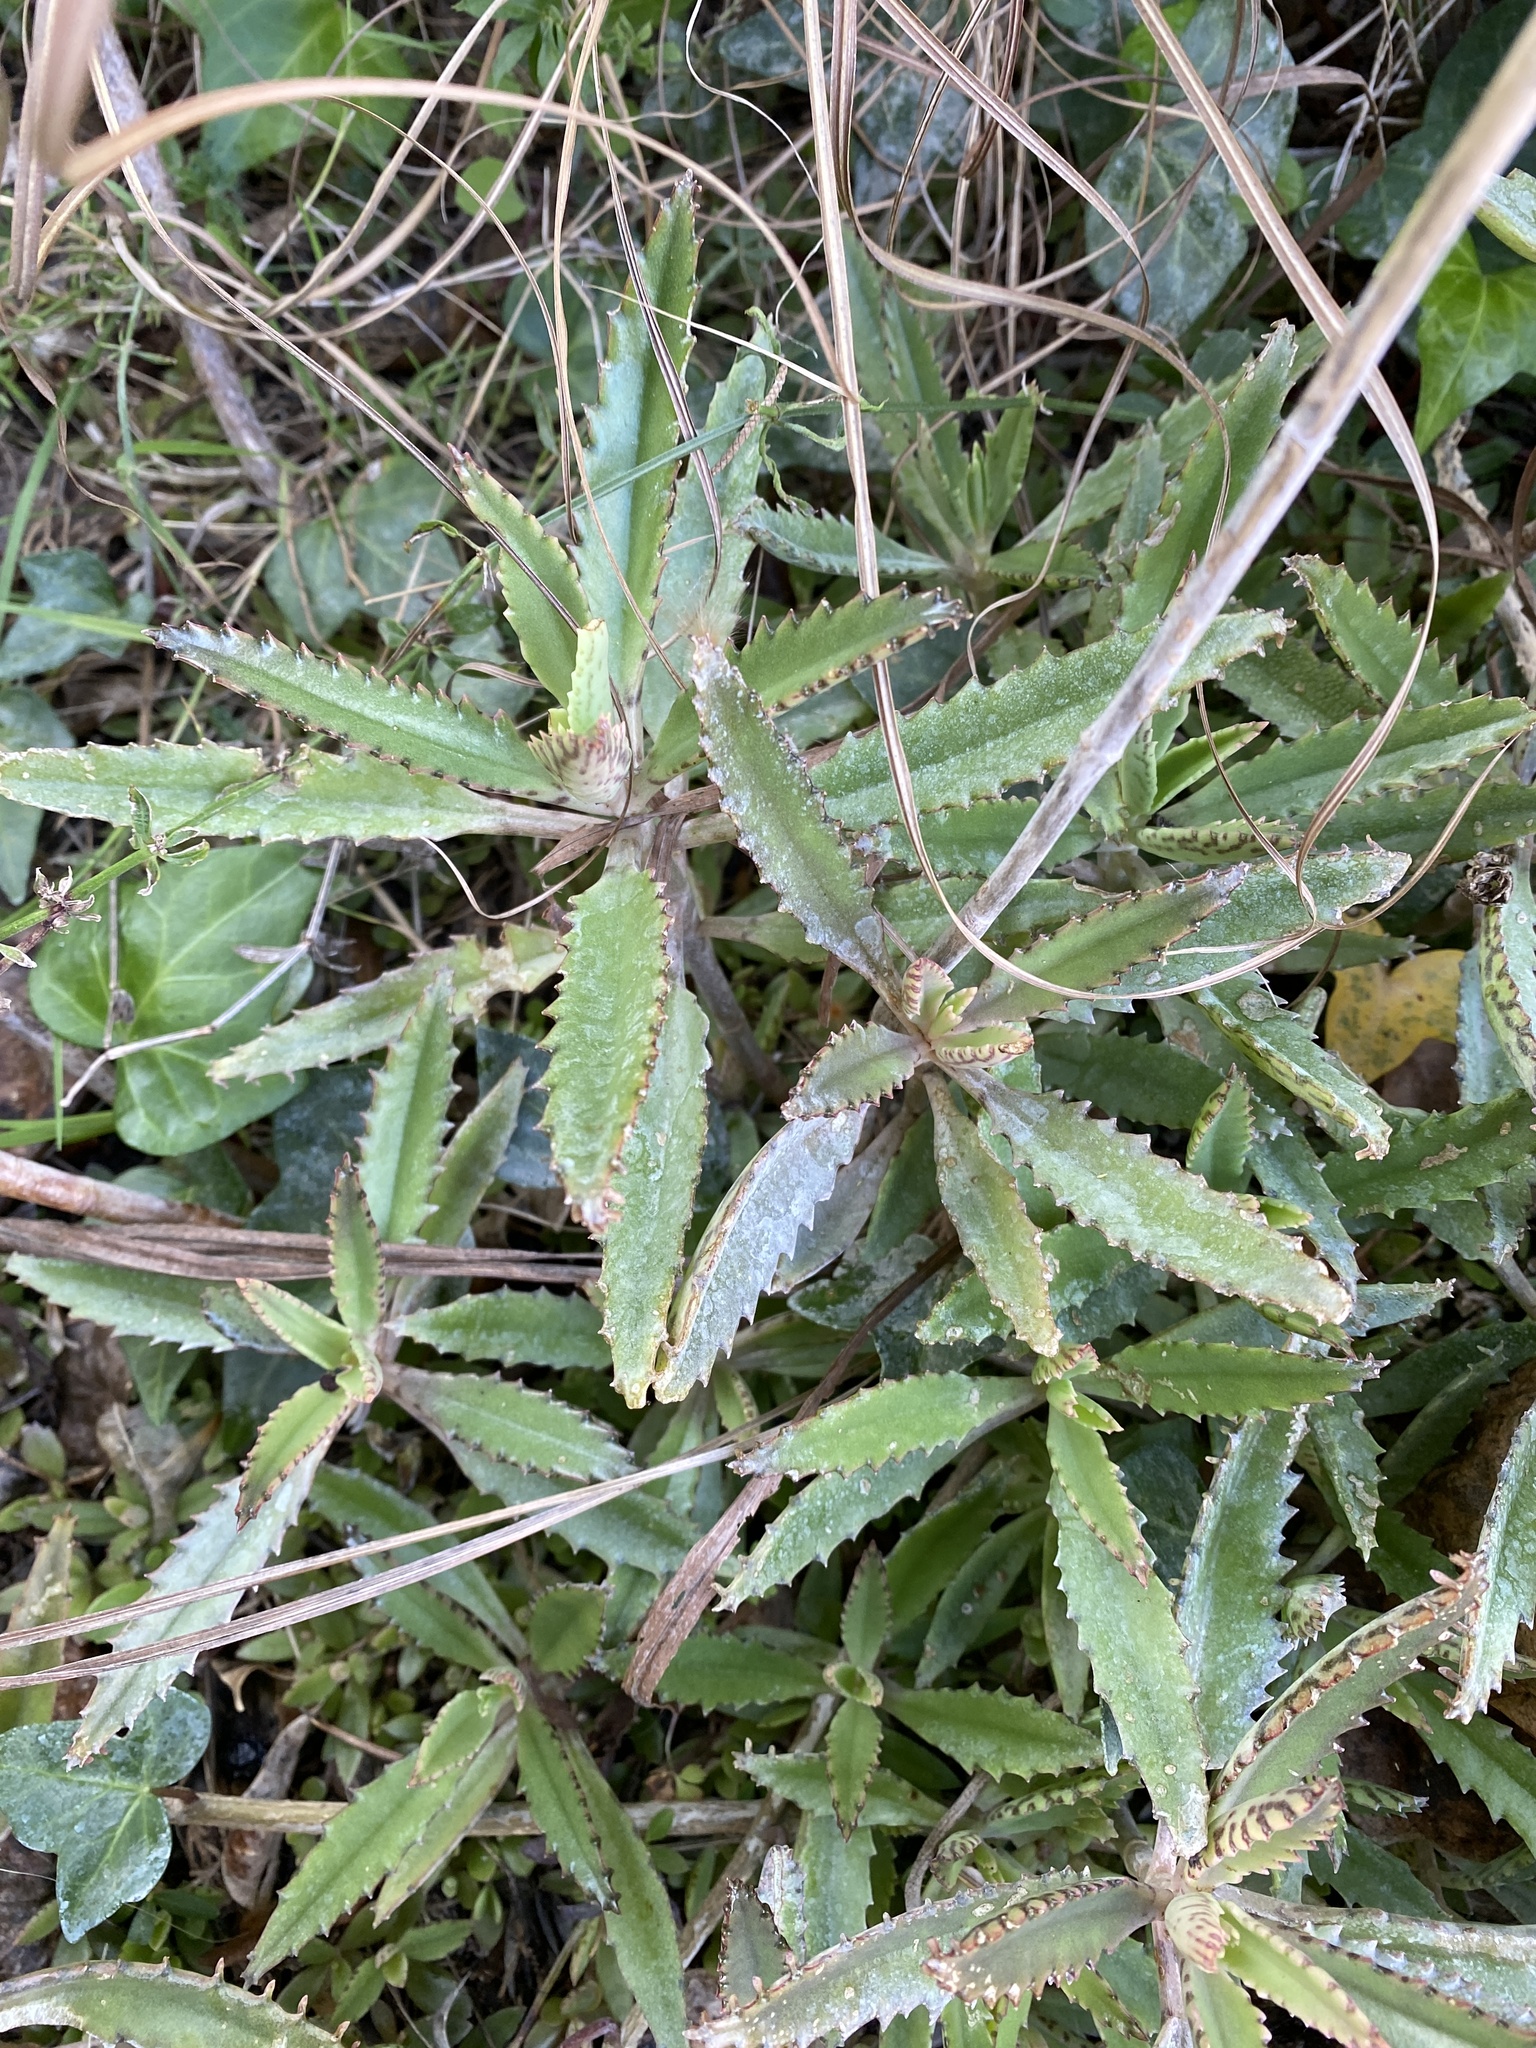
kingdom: Plantae
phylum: Tracheophyta
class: Magnoliopsida
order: Saxifragales
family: Crassulaceae
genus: Kalanchoe
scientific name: Kalanchoe houghtonii
